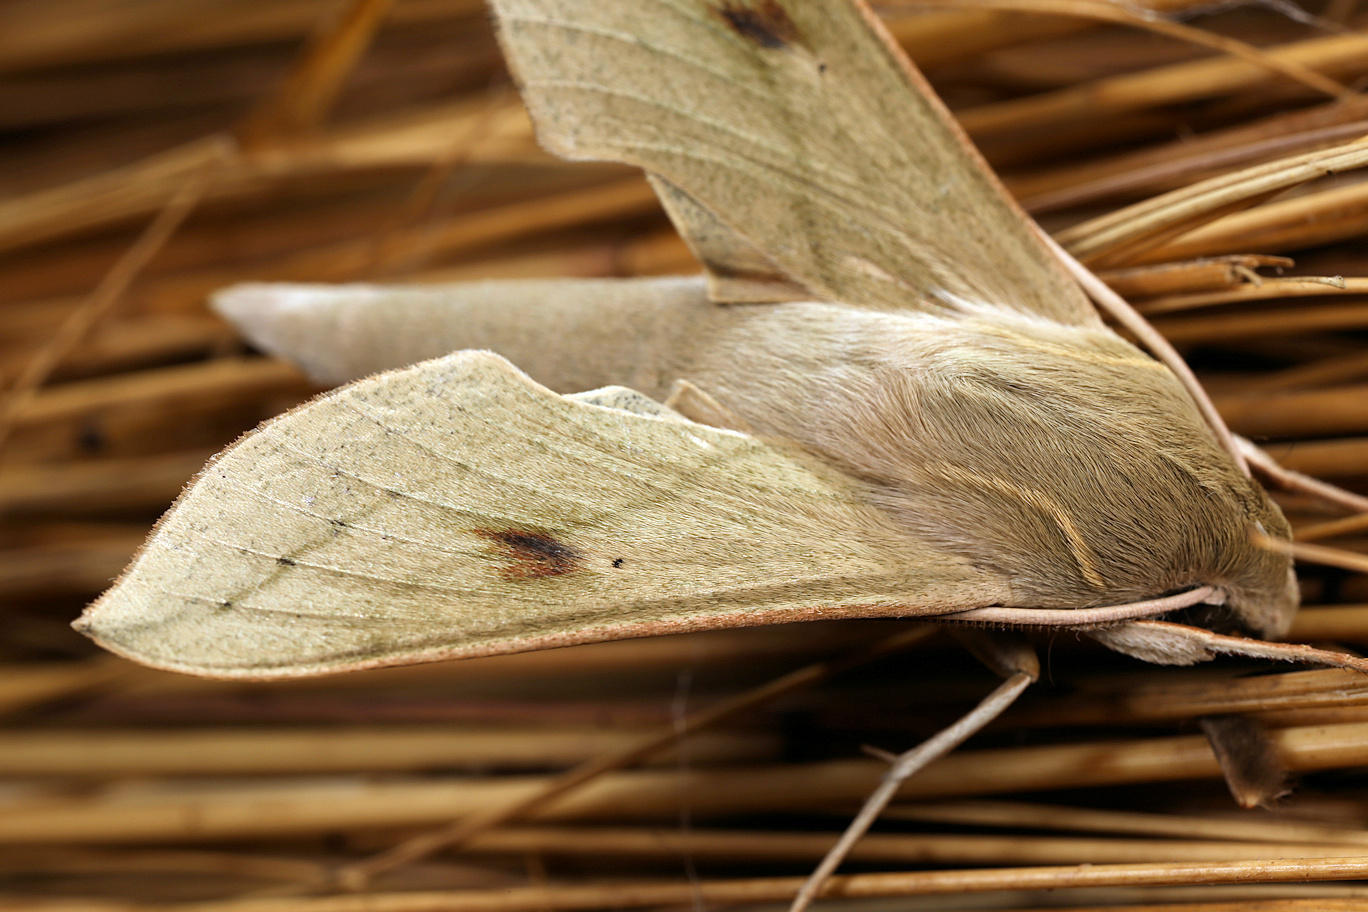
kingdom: Animalia
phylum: Arthropoda
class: Insecta
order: Lepidoptera
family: Sphingidae
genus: Hippotion
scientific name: Hippotion roseipennis
